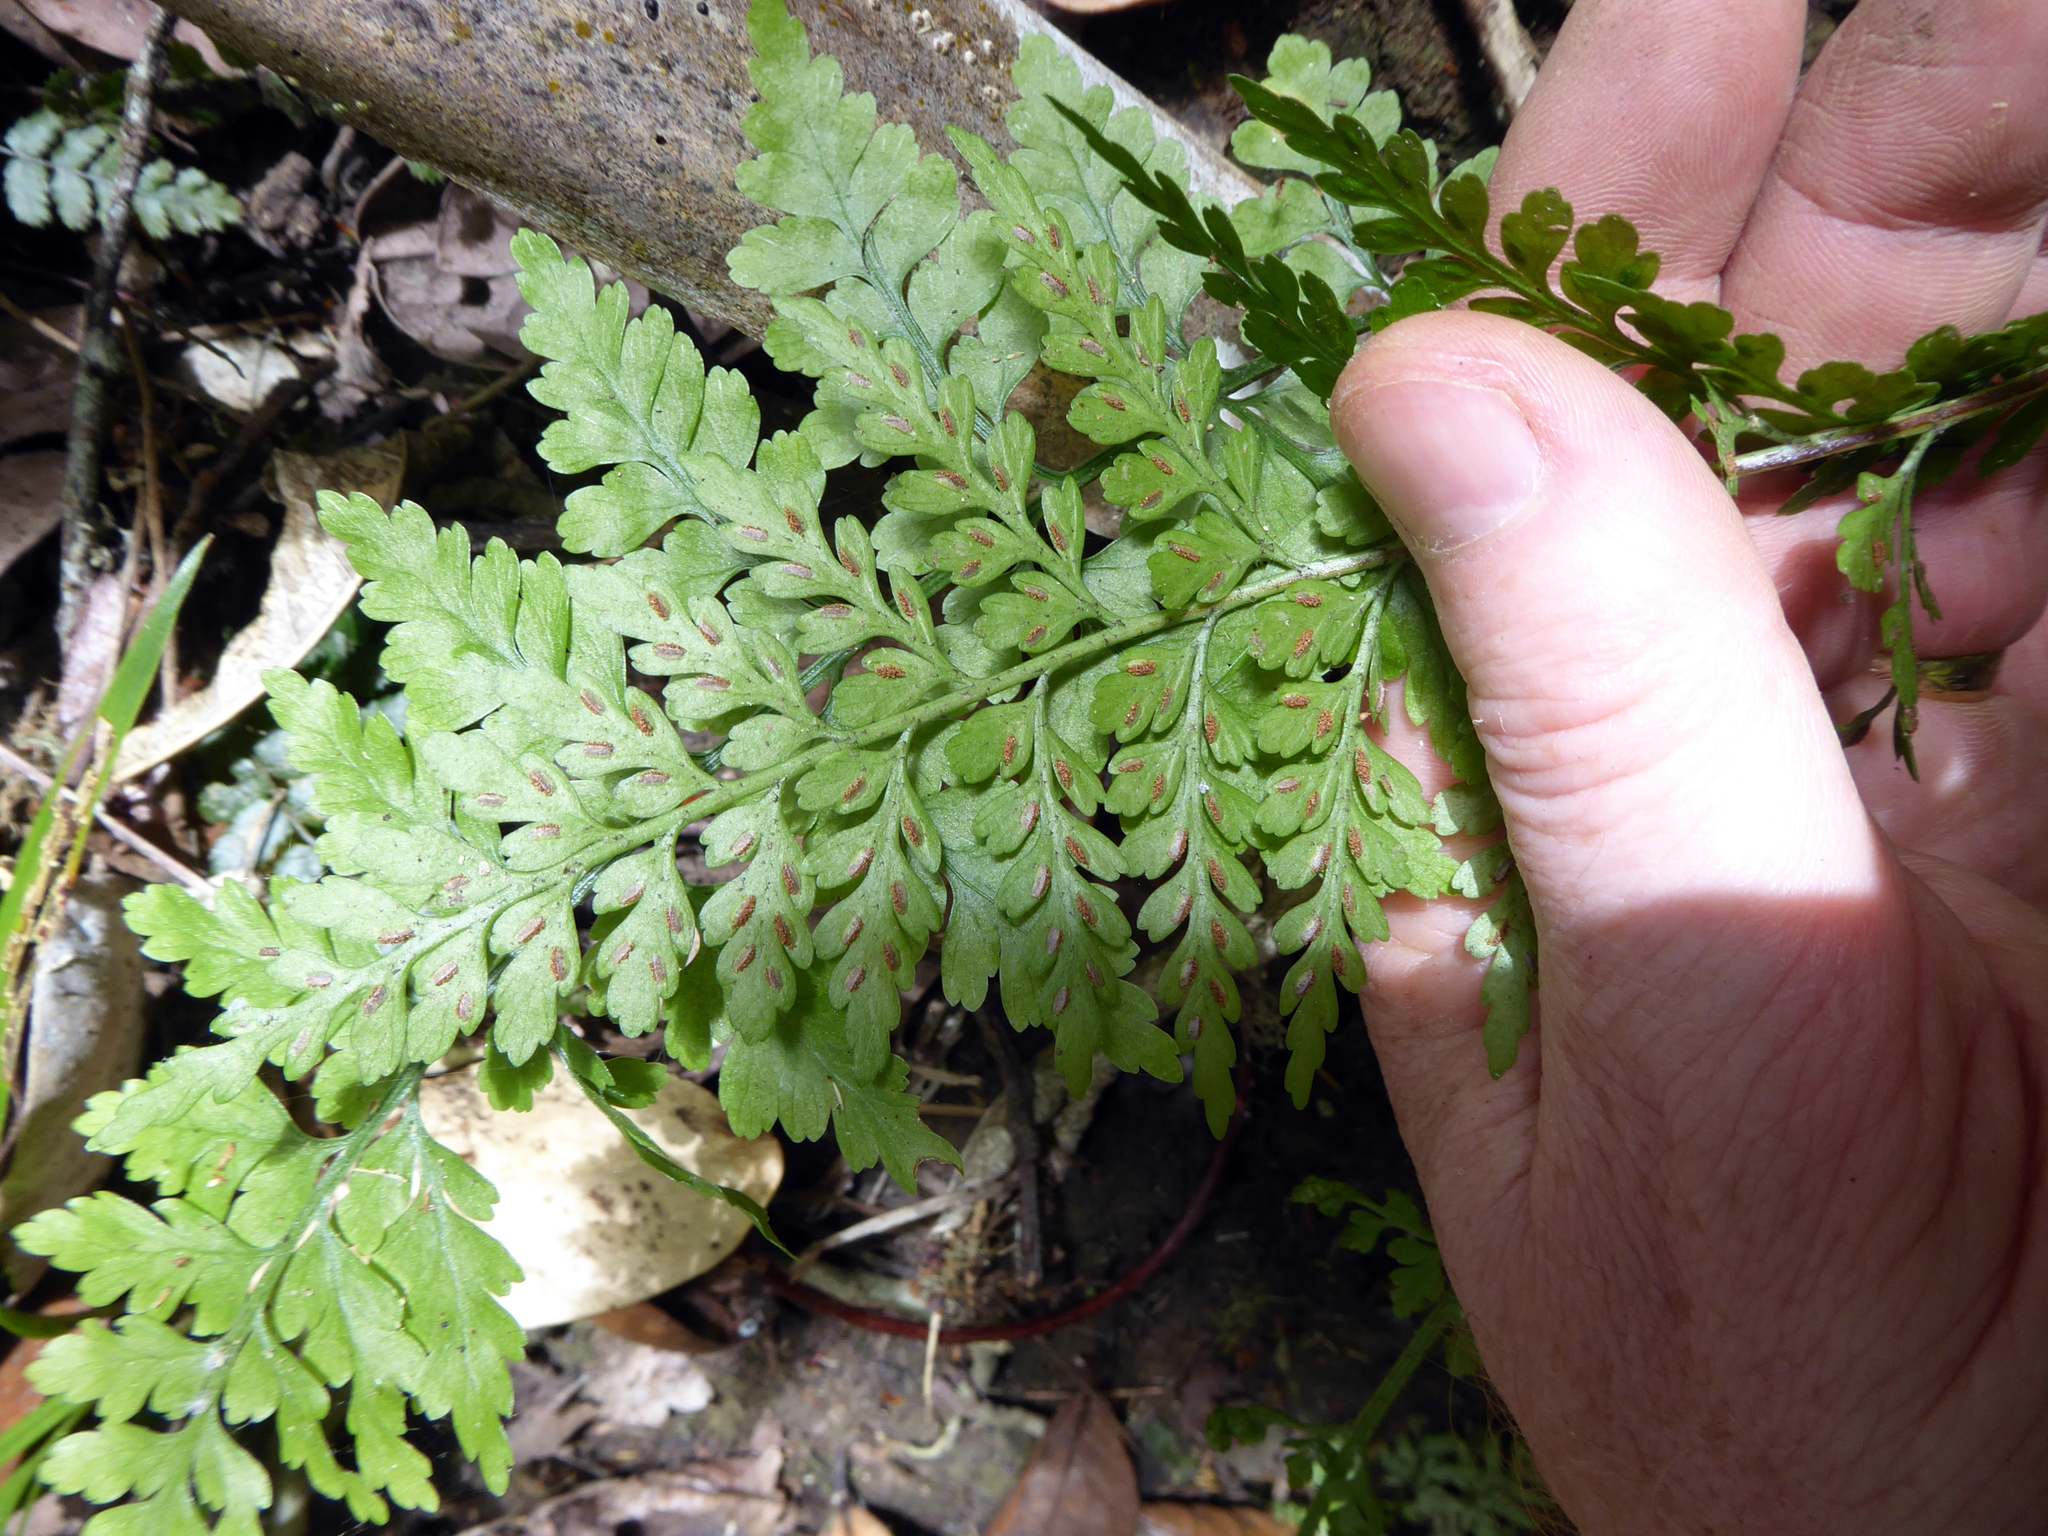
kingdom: Plantae
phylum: Tracheophyta
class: Polypodiopsida
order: Polypodiales
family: Aspleniaceae
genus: Asplenium
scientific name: Asplenium
